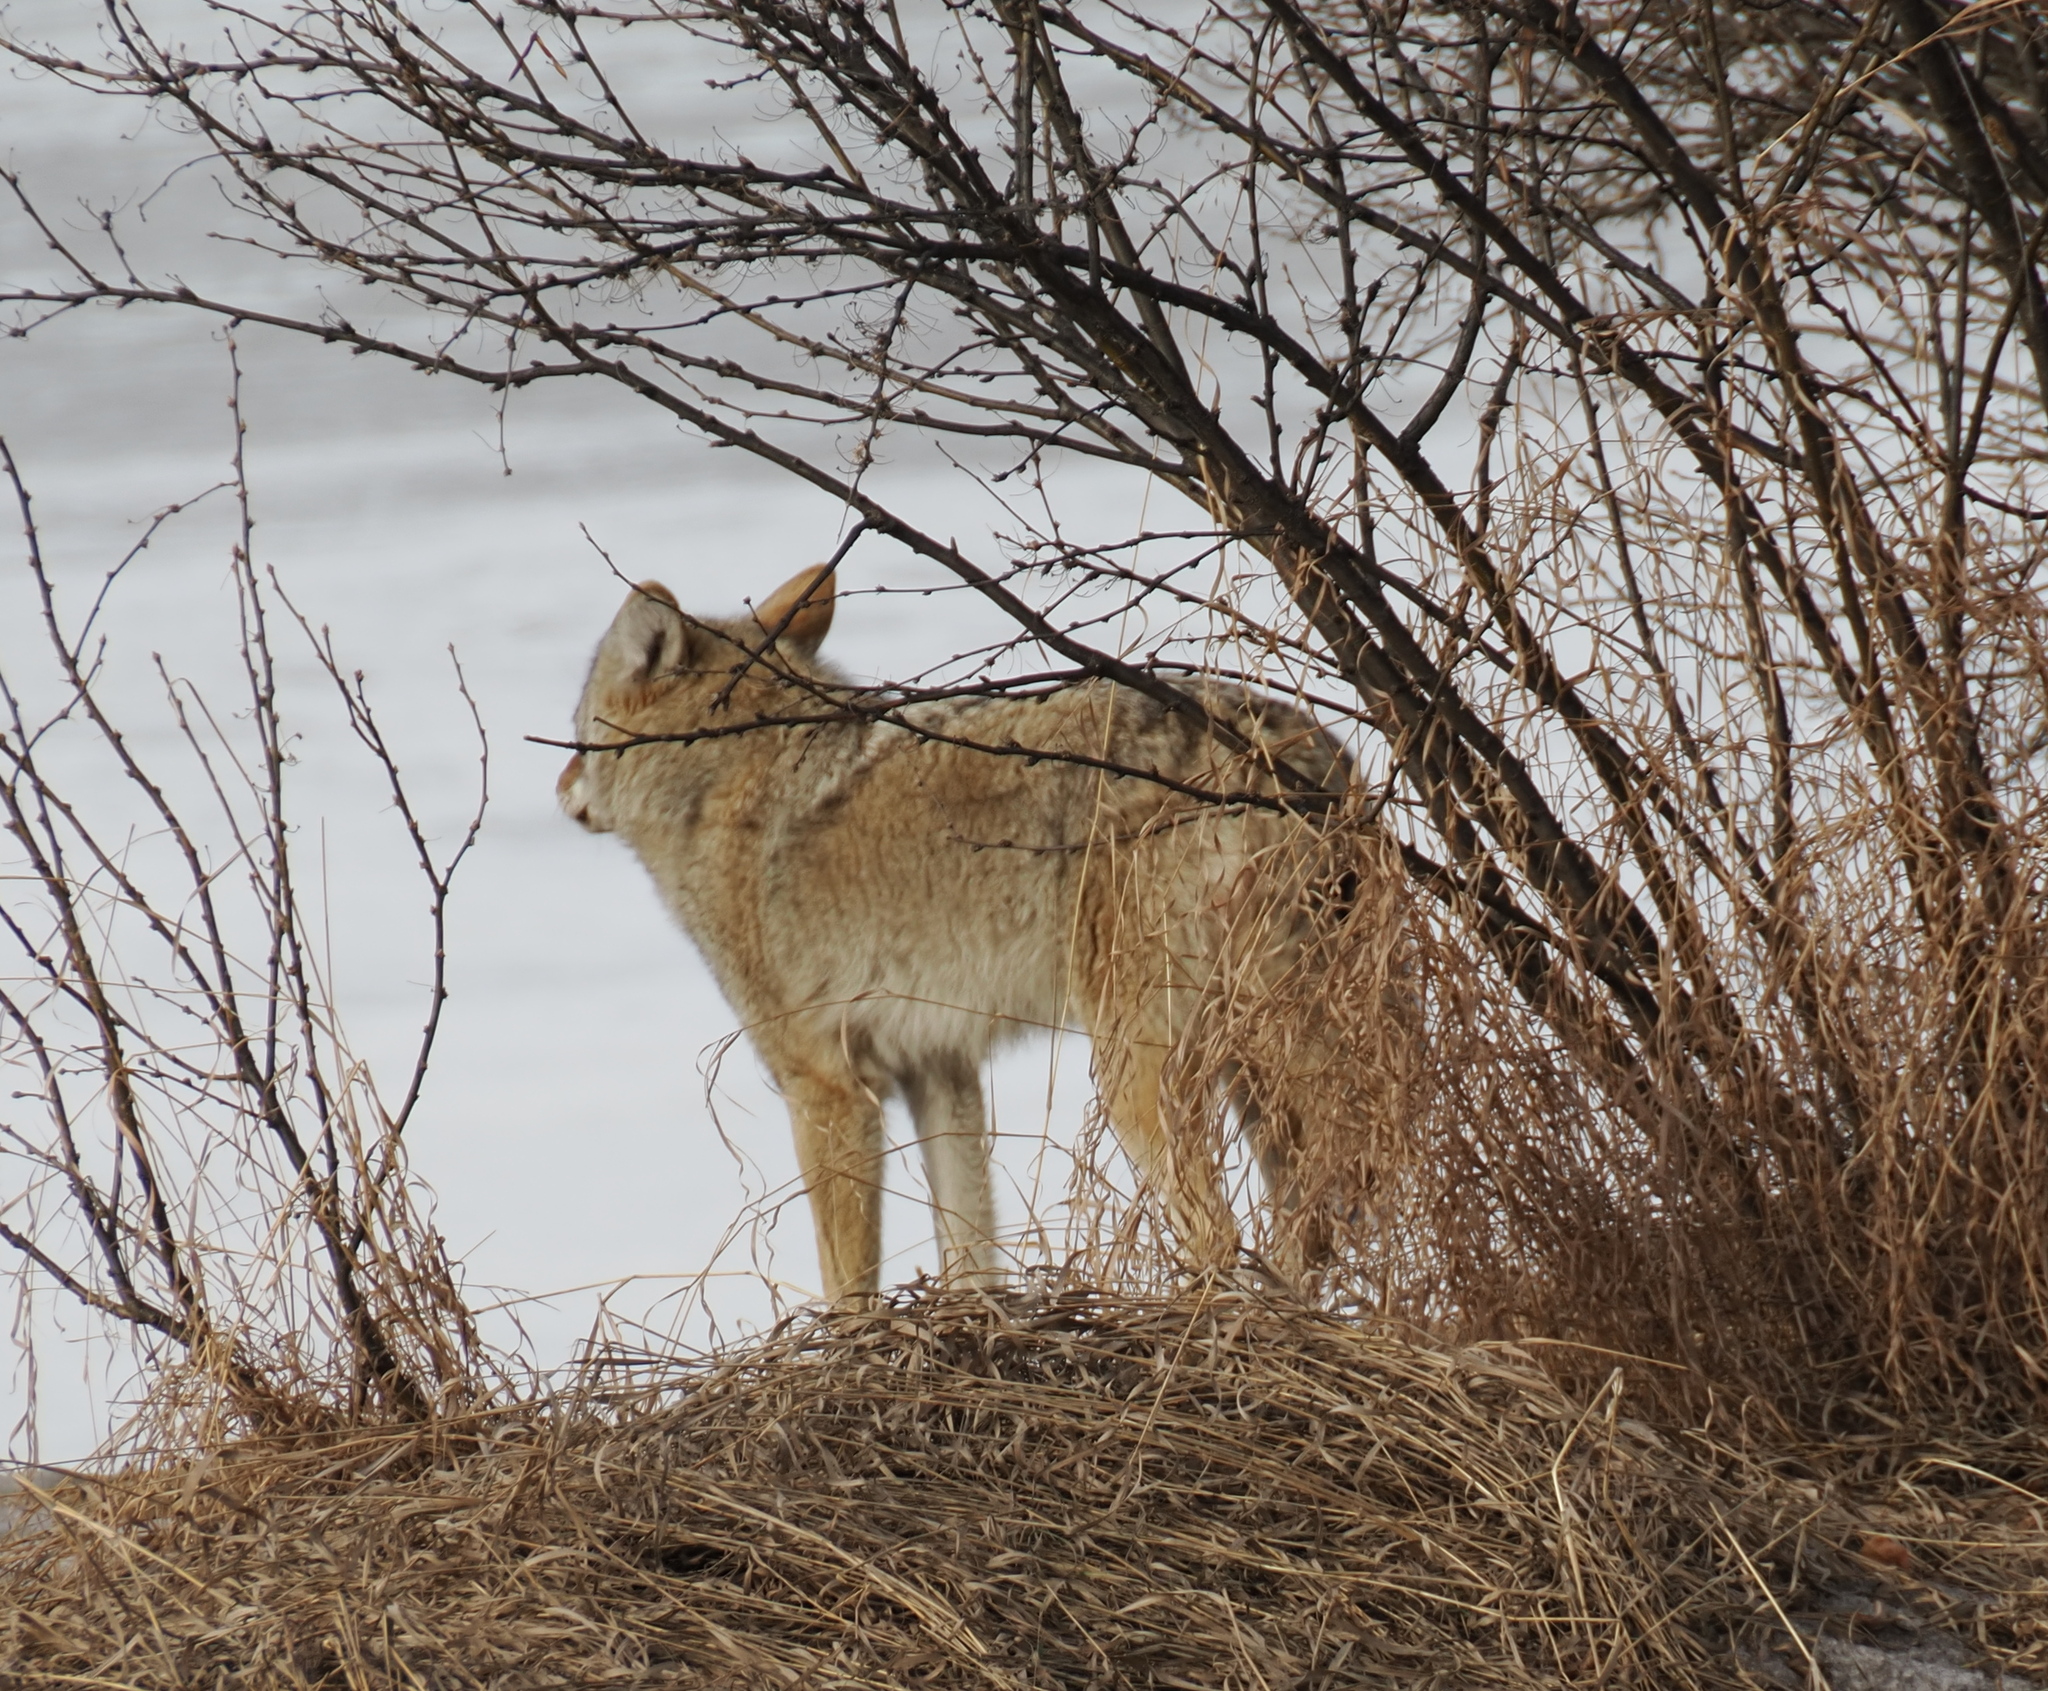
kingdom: Animalia
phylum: Chordata
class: Mammalia
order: Carnivora
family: Canidae
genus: Canis
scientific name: Canis latrans
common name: Coyote
